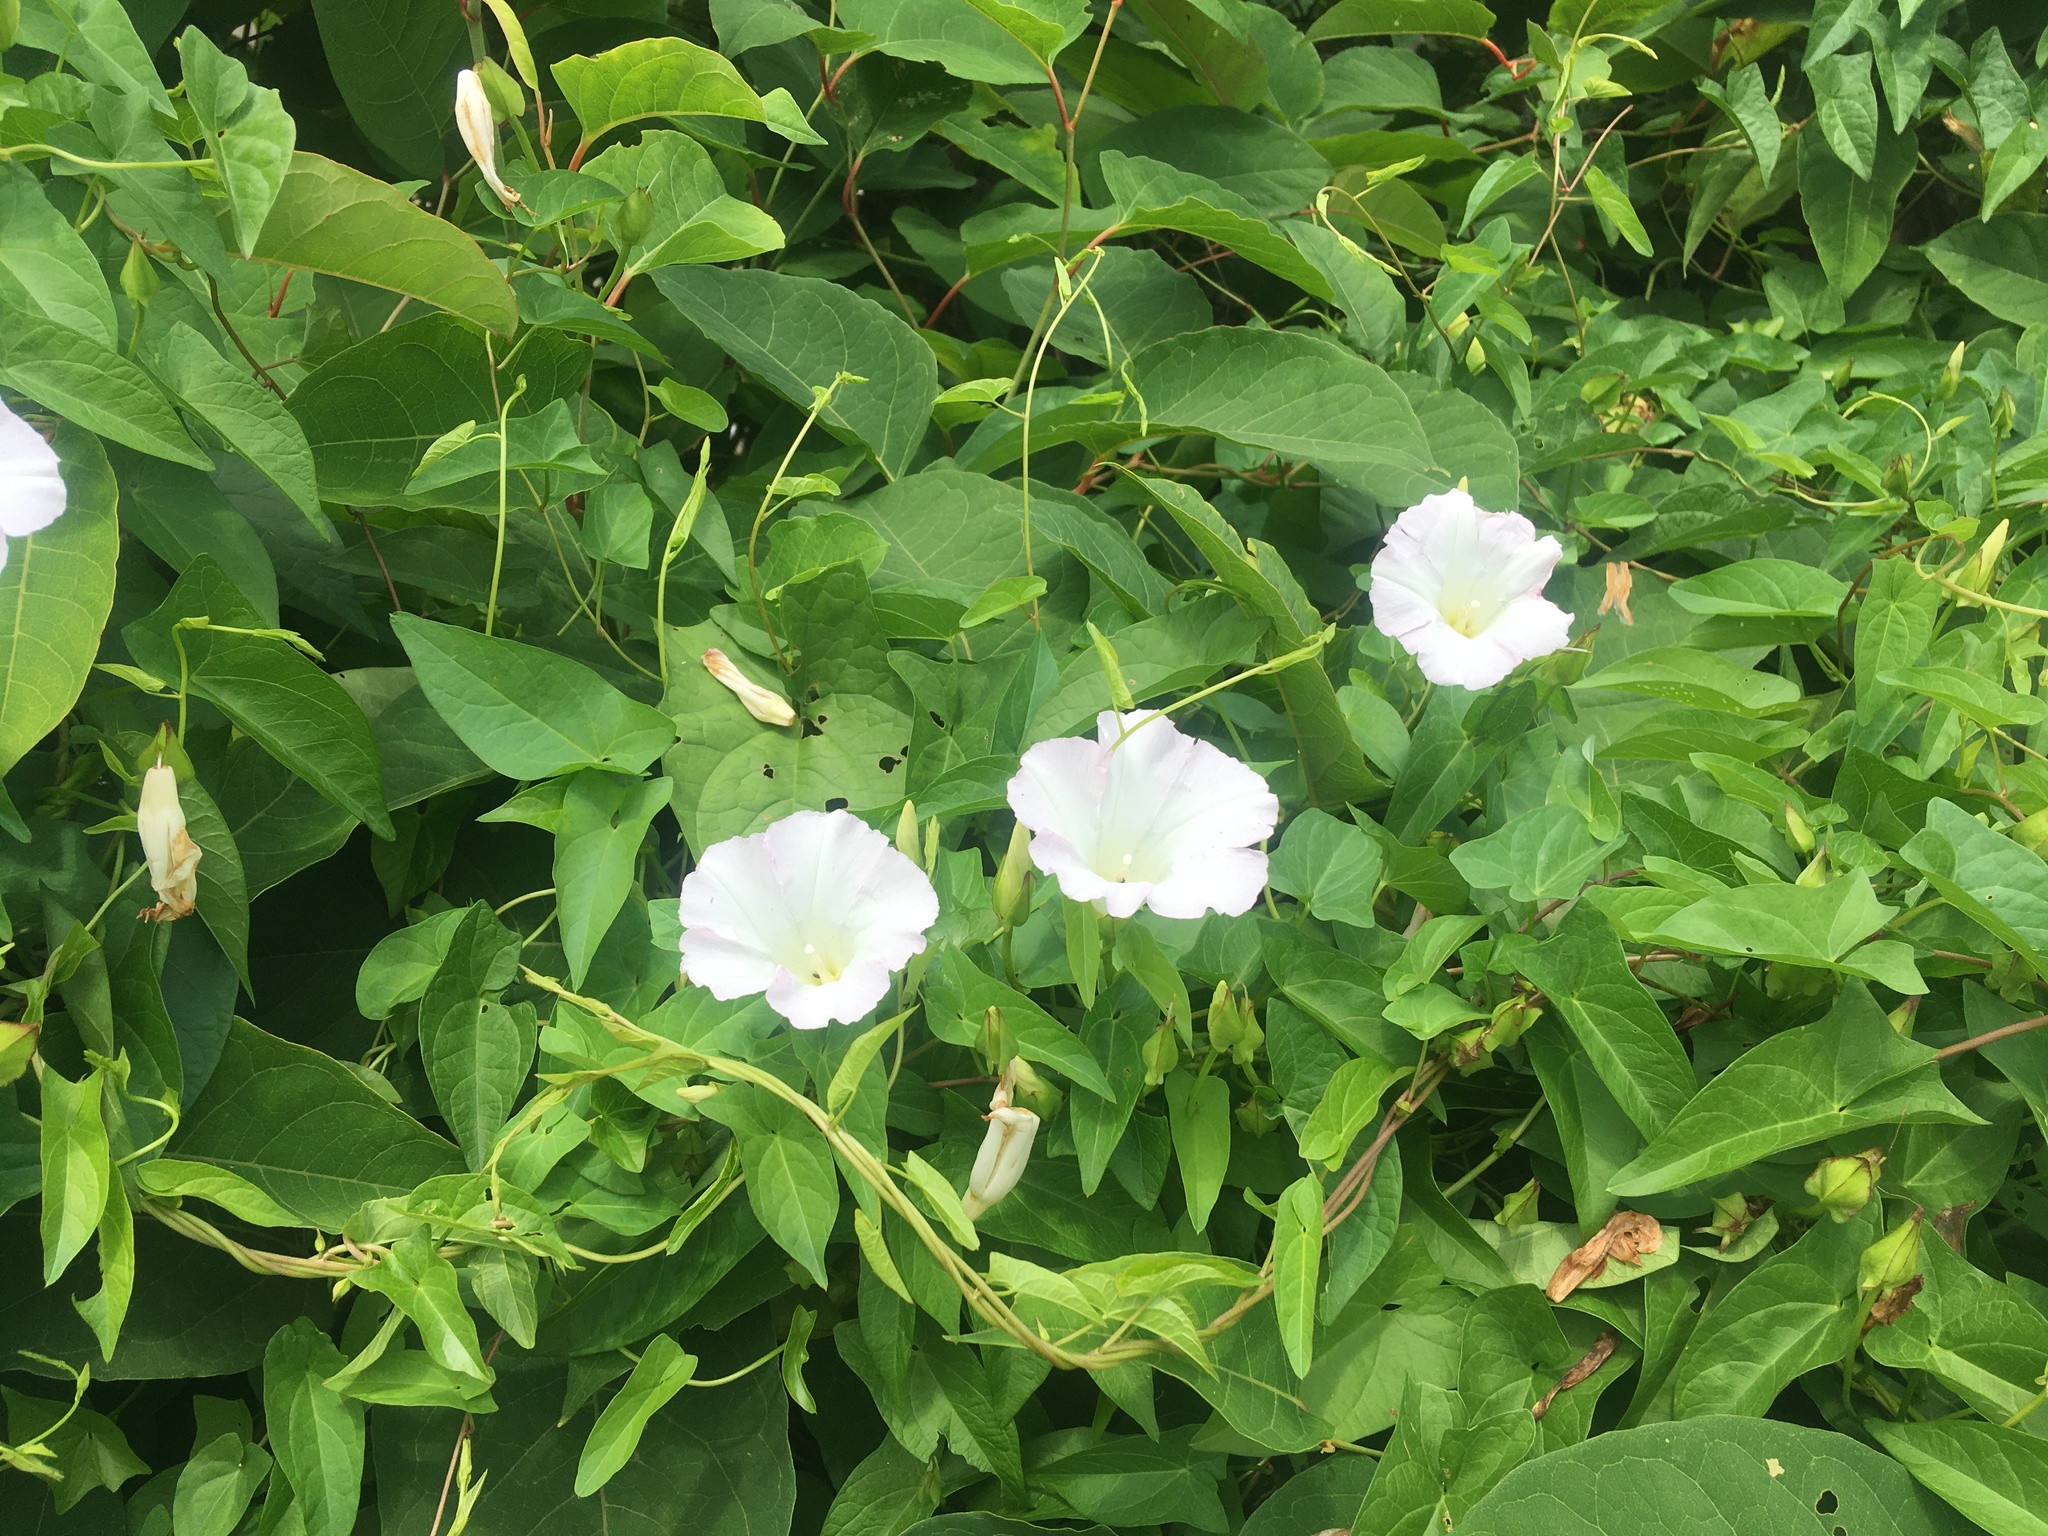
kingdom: Plantae
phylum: Tracheophyta
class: Magnoliopsida
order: Solanales
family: Convolvulaceae
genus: Calystegia
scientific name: Calystegia sepium
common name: Hedge bindweed
